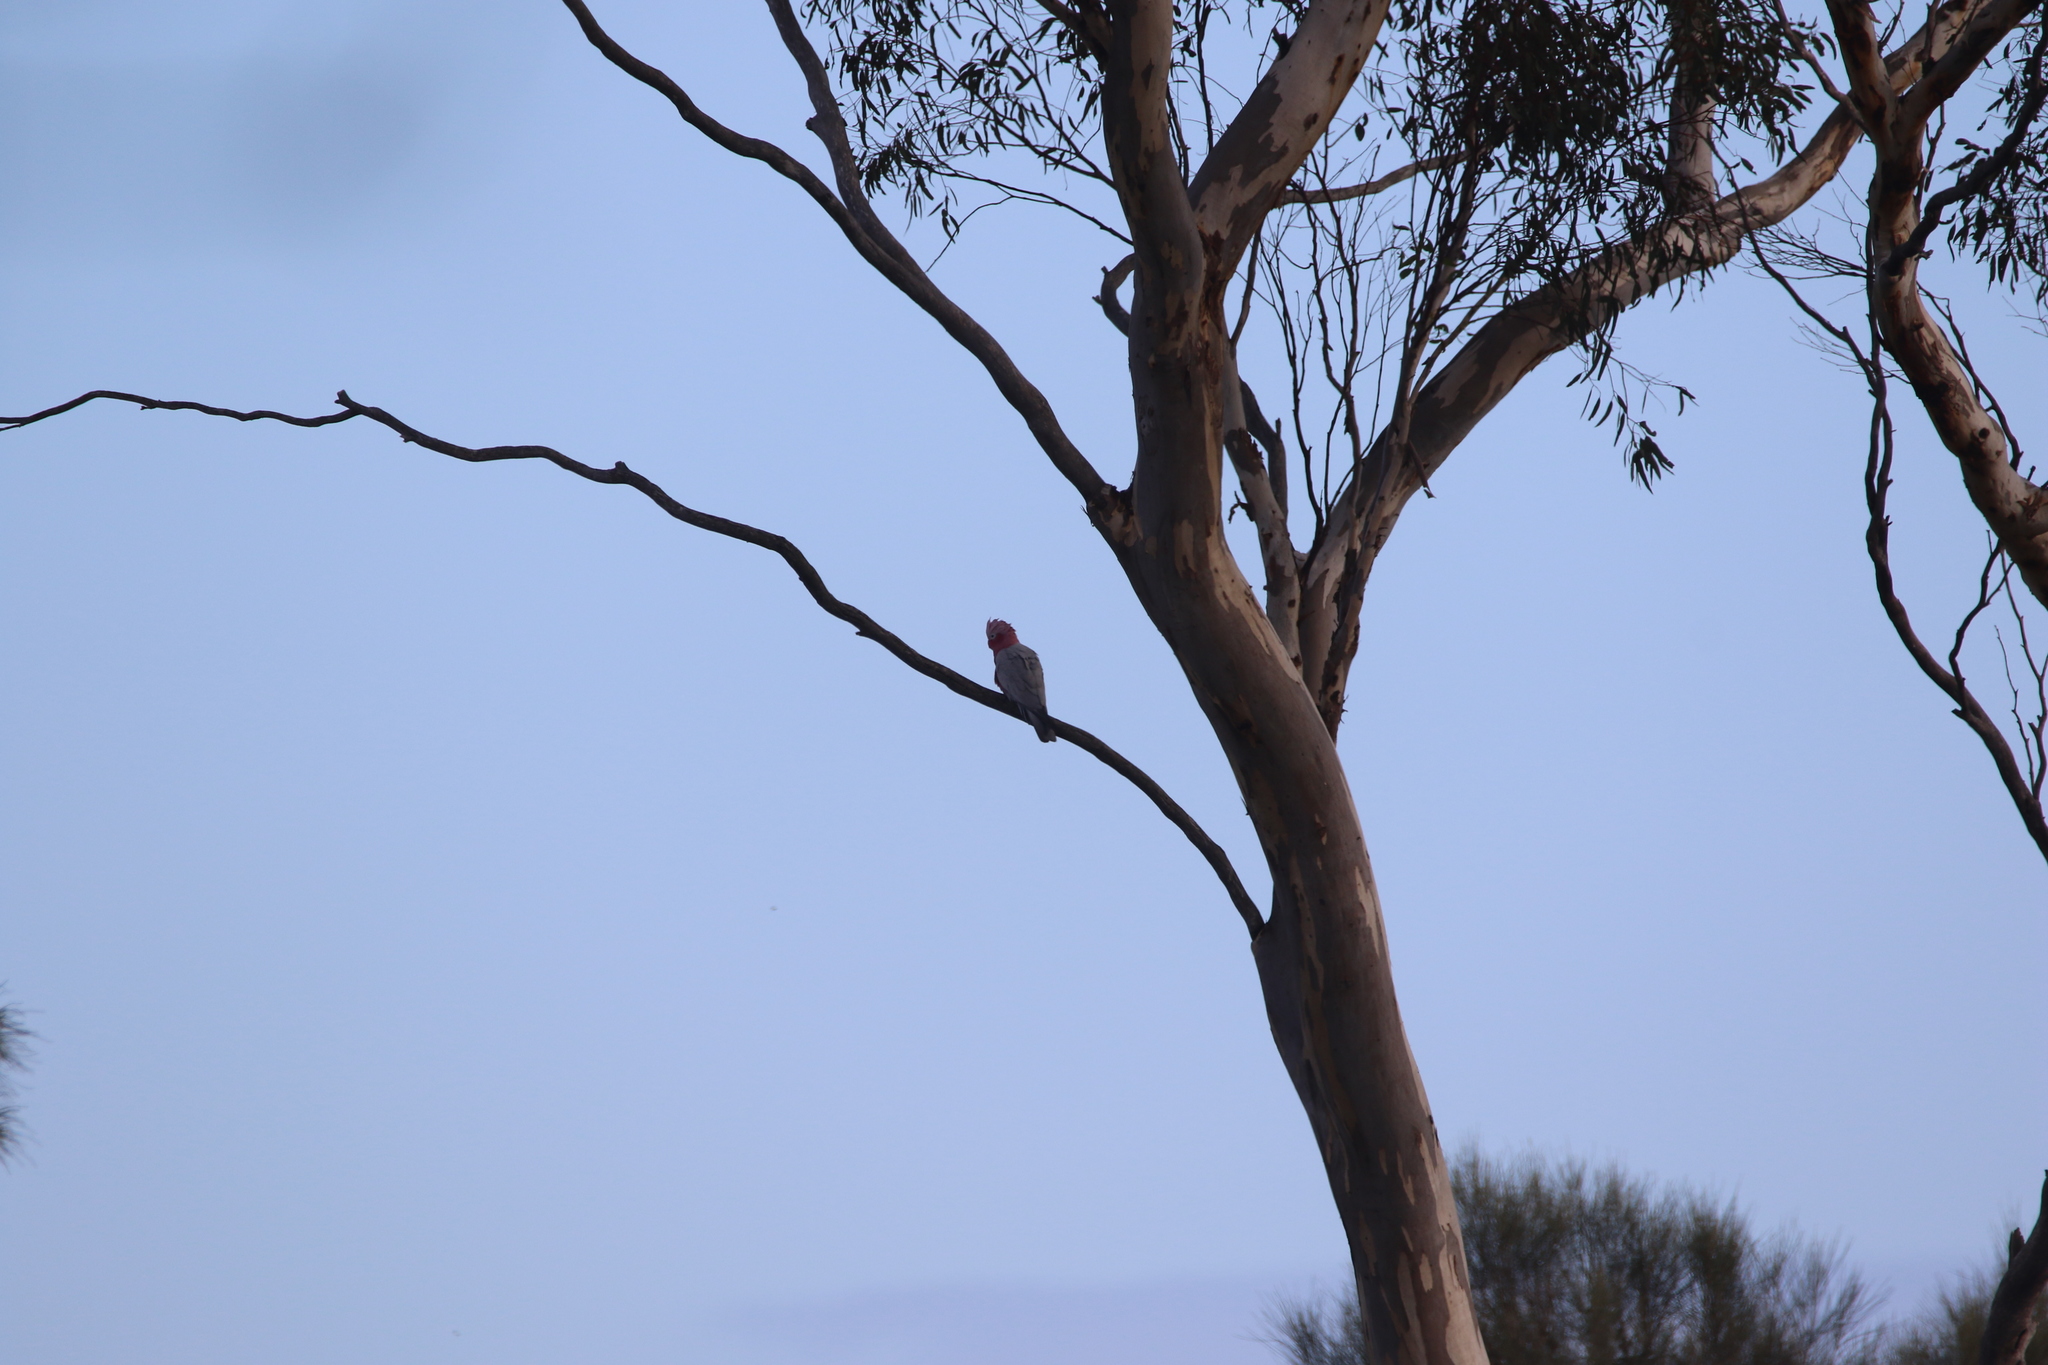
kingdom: Animalia
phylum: Chordata
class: Aves
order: Psittaciformes
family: Psittacidae
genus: Eolophus
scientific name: Eolophus roseicapilla
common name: Galah
